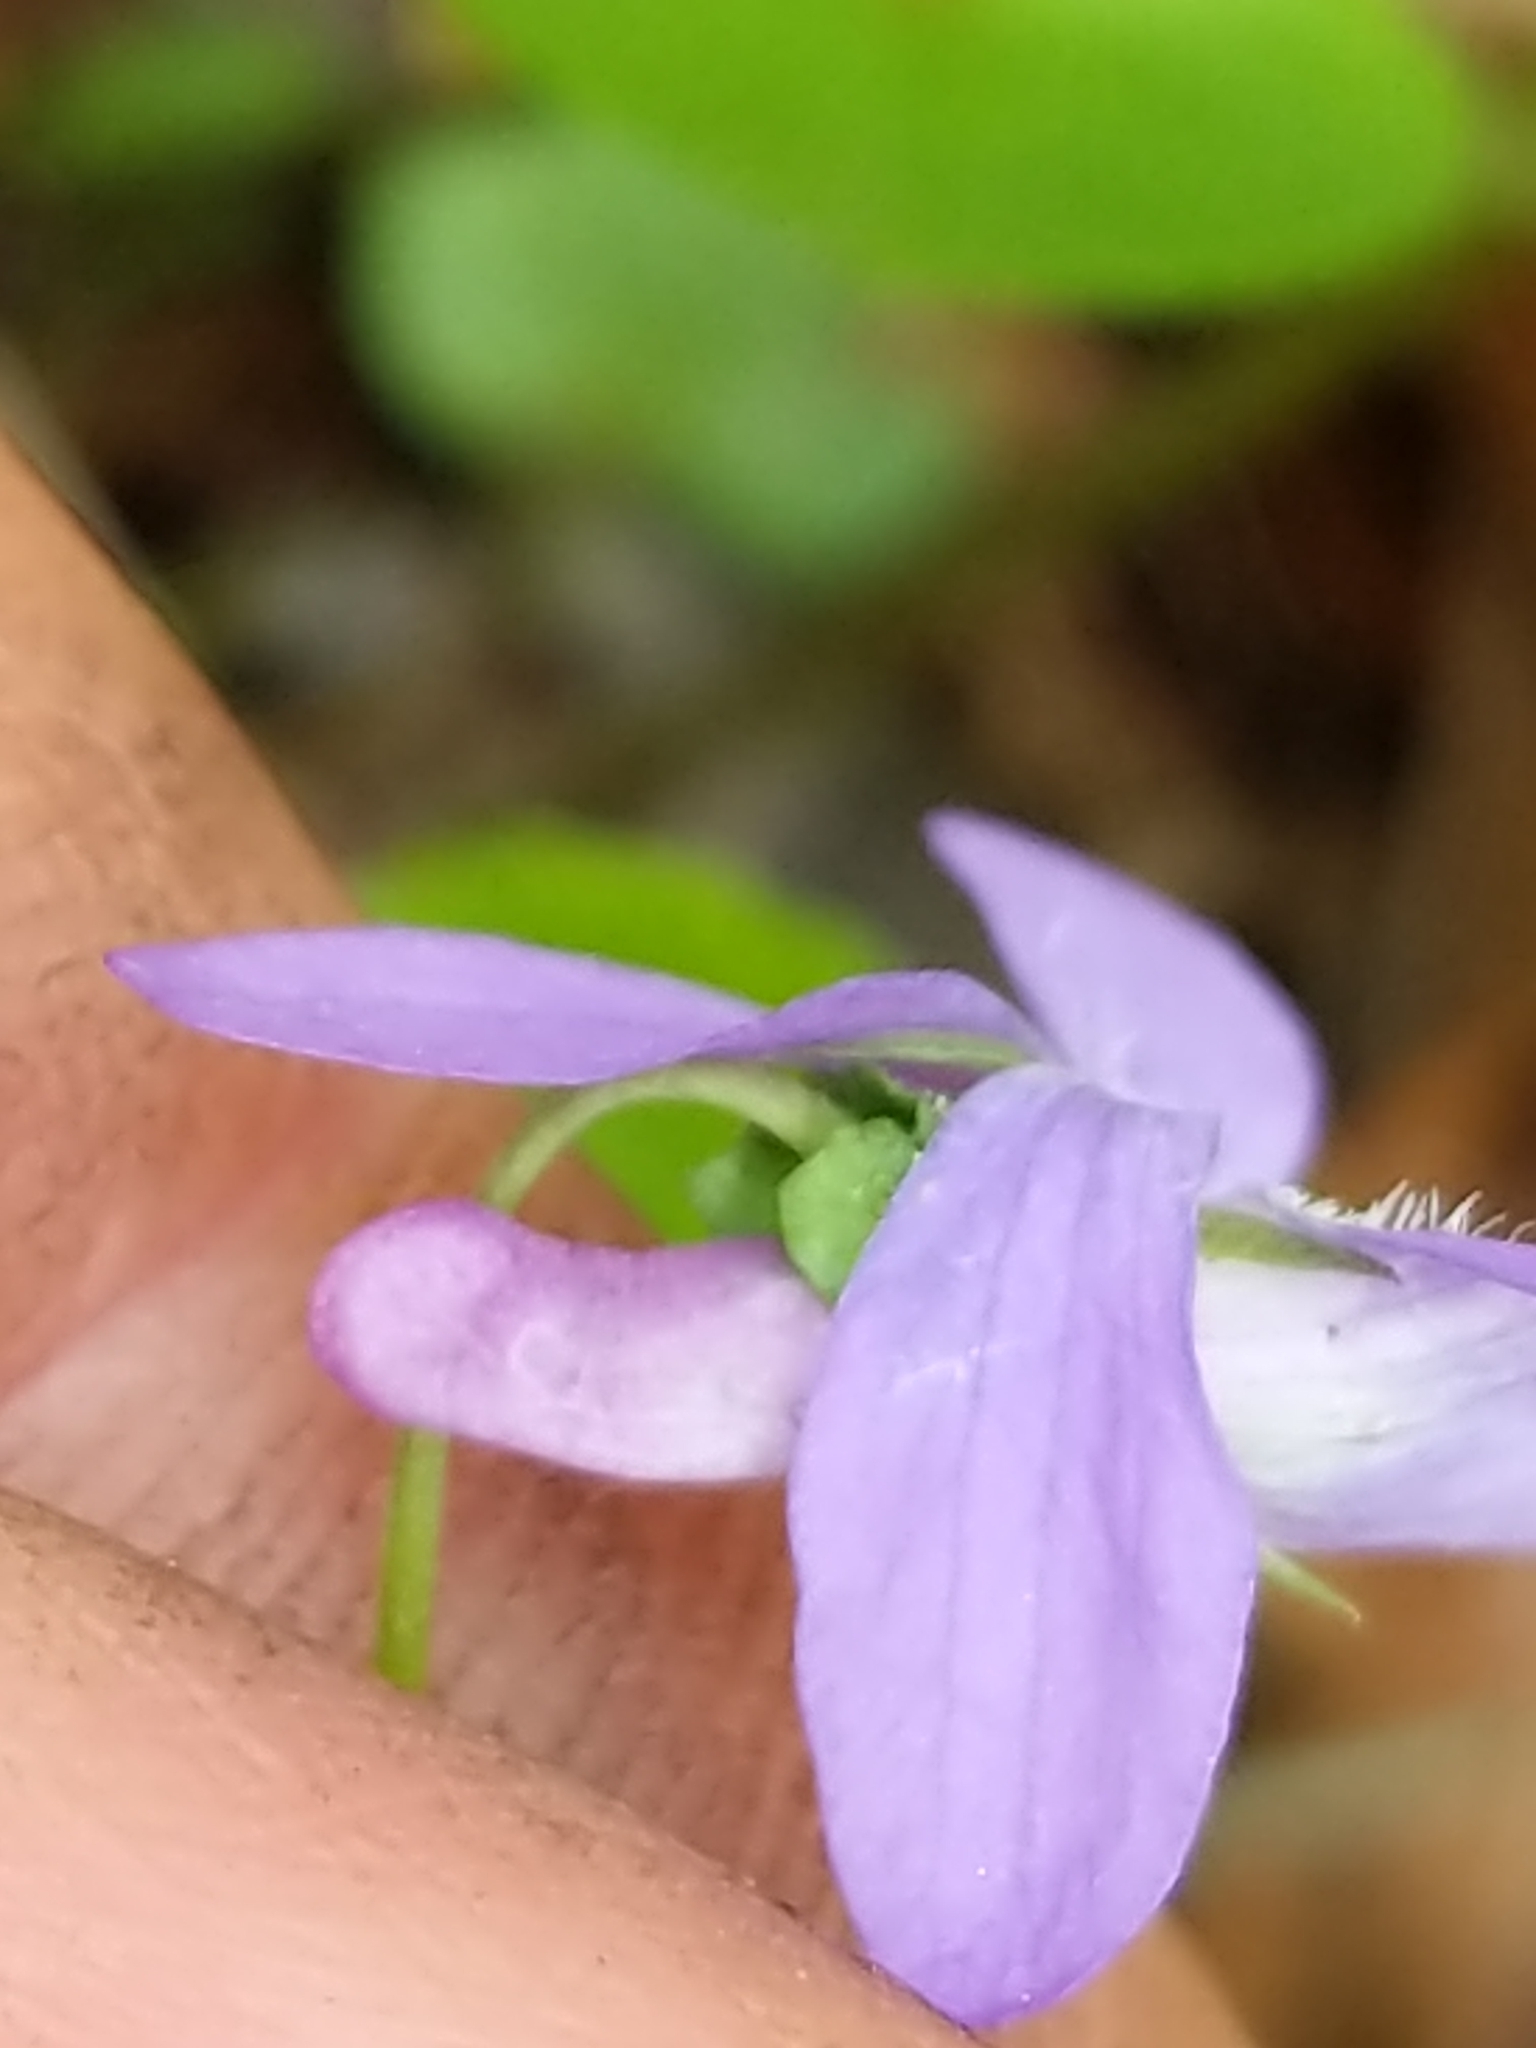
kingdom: Plantae
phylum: Tracheophyta
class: Magnoliopsida
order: Malpighiales
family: Violaceae
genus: Viola
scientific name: Viola labradorica
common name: Labrador violet
